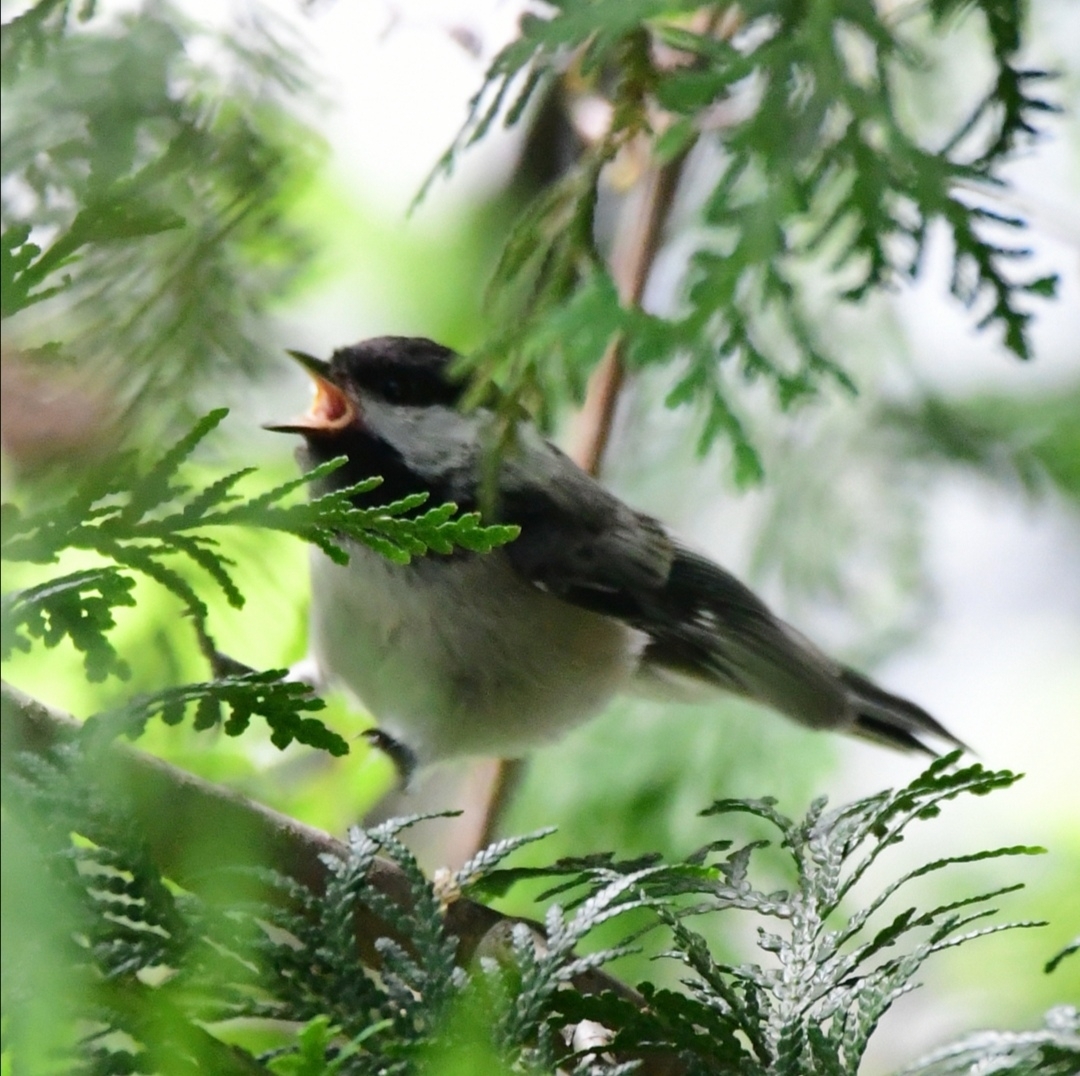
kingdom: Animalia
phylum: Chordata
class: Aves
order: Passeriformes
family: Paridae
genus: Poecile
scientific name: Poecile atricapillus
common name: Black-capped chickadee
